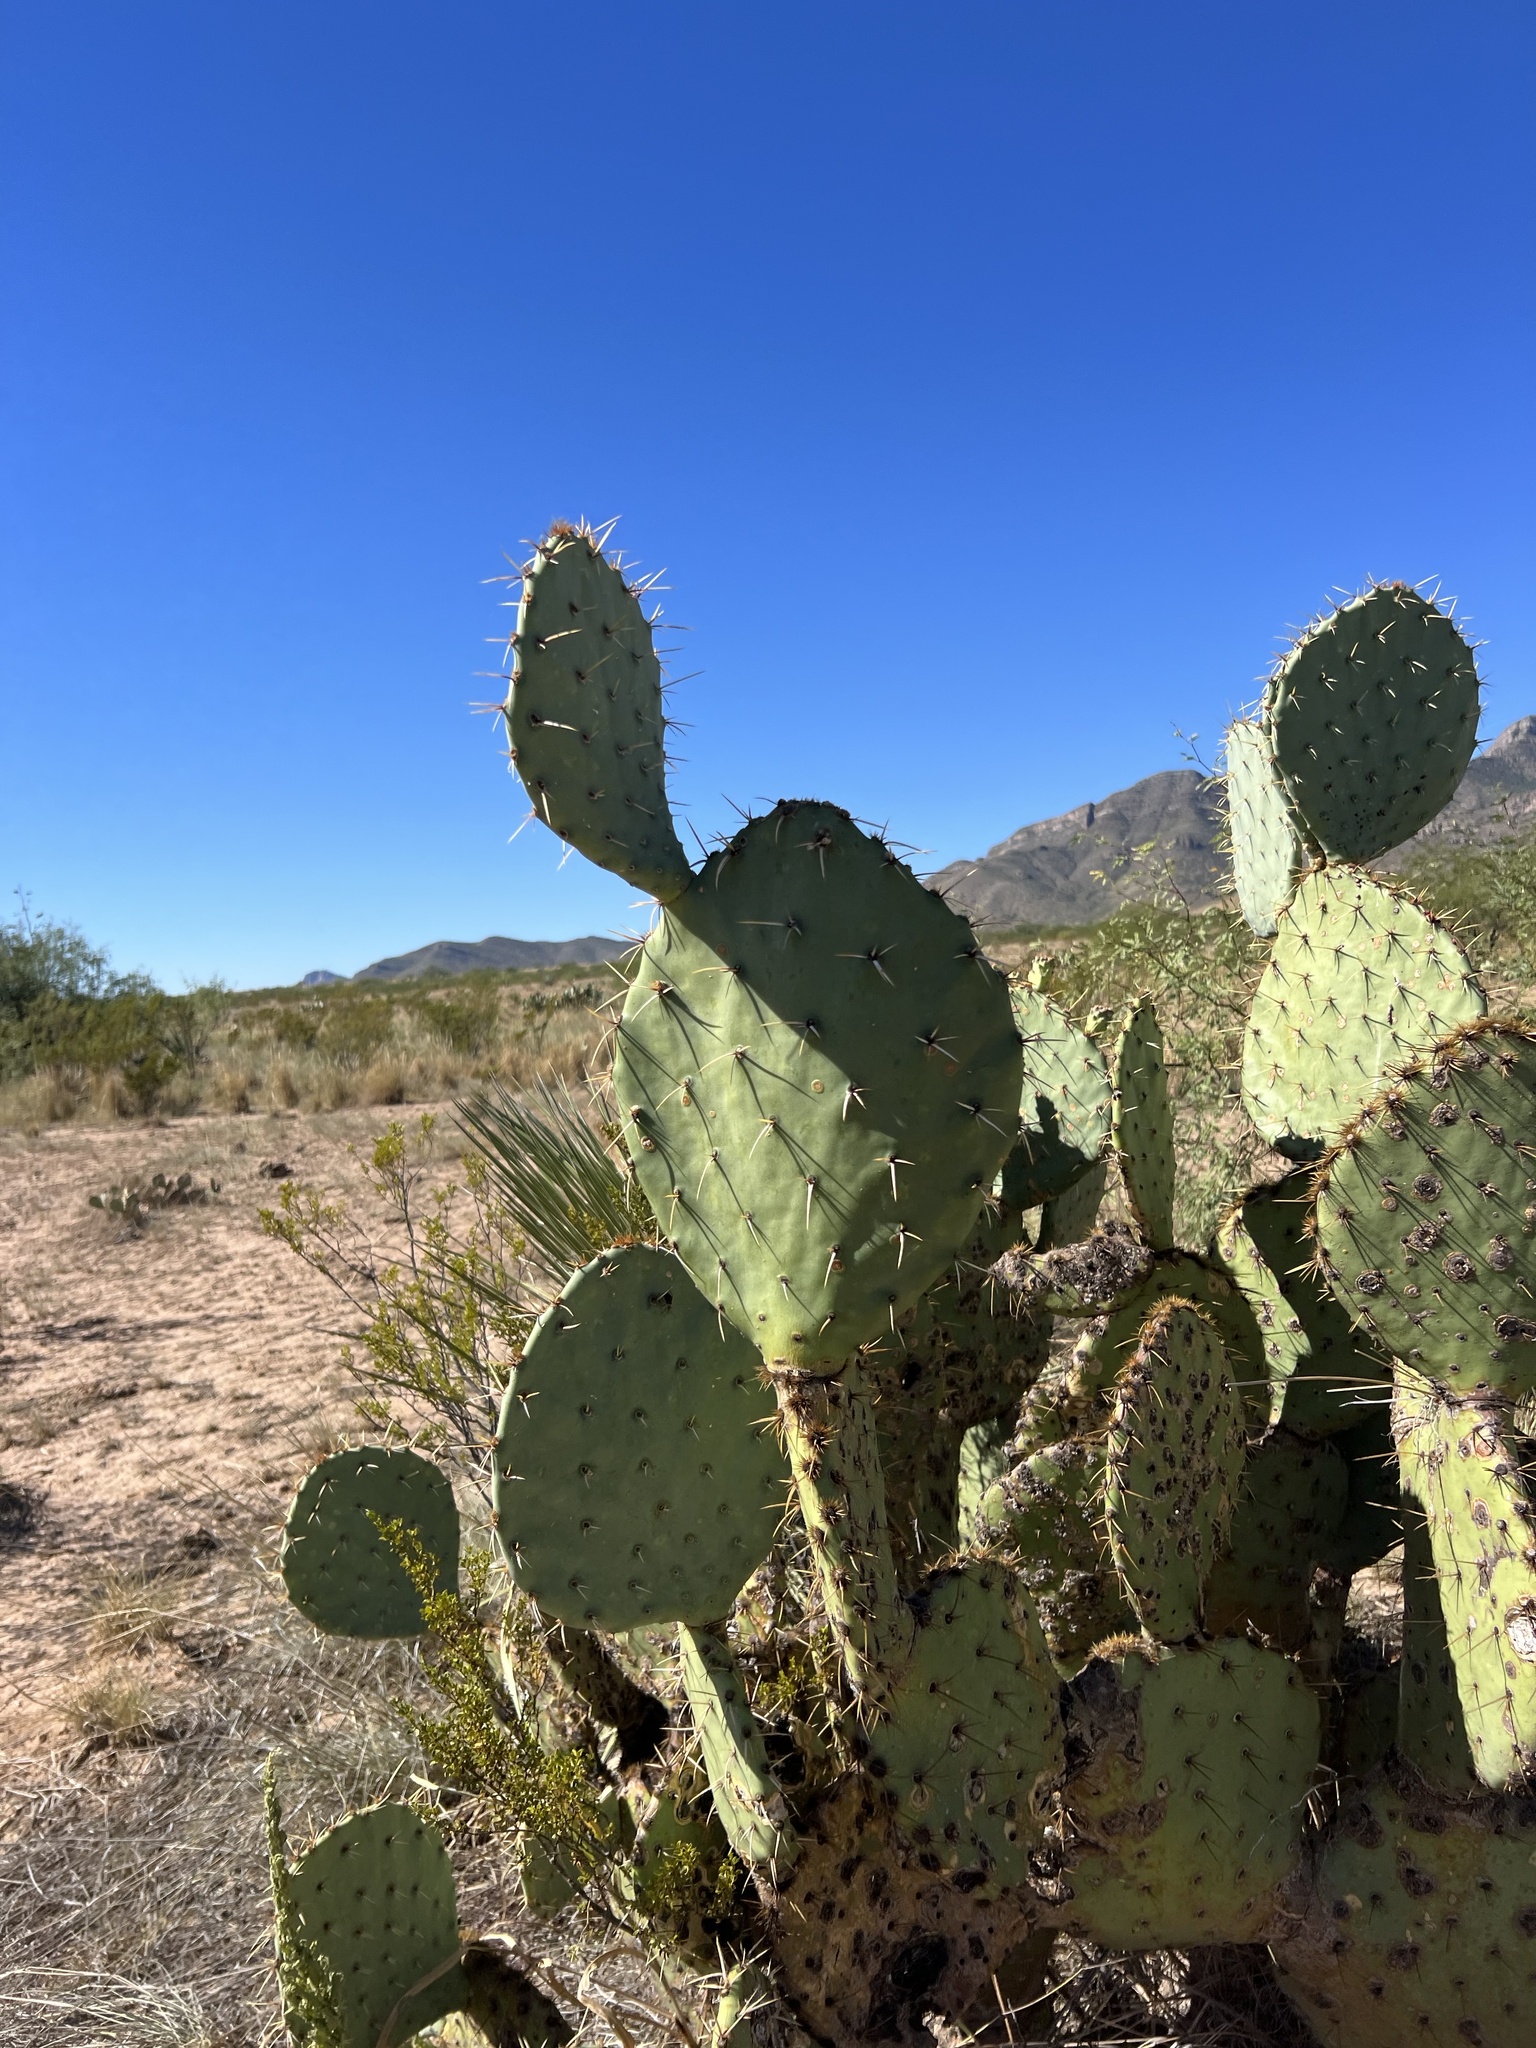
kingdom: Plantae
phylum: Tracheophyta
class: Magnoliopsida
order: Caryophyllales
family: Cactaceae
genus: Opuntia
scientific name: Opuntia engelmannii
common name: Cactus-apple
